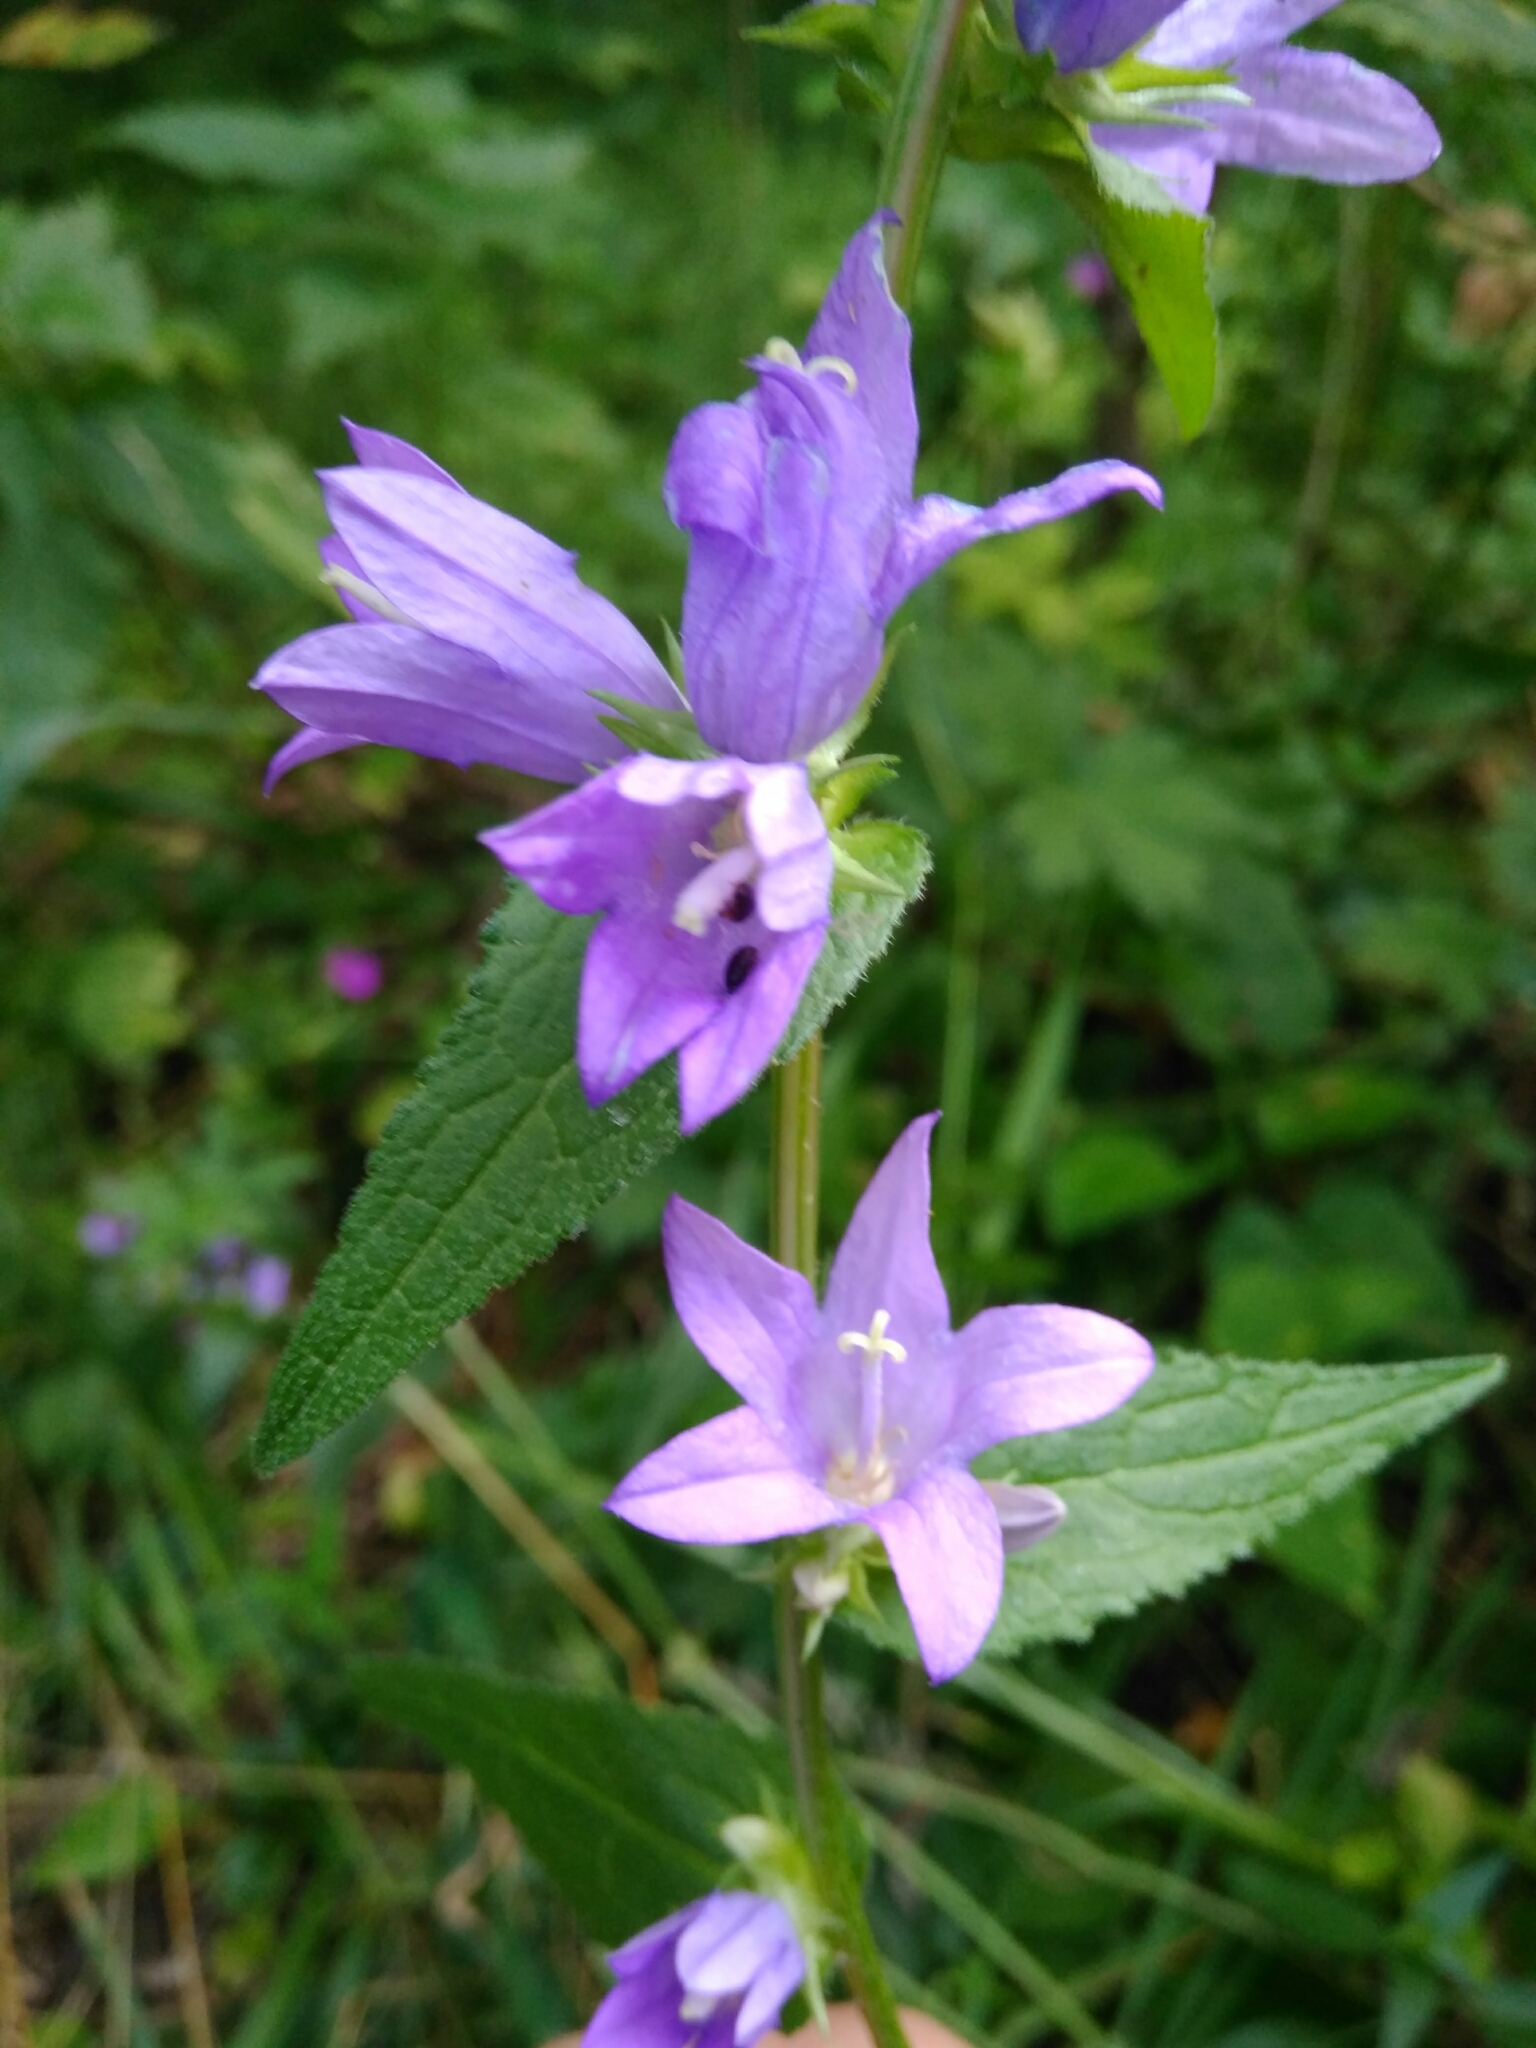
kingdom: Plantae
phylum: Tracheophyta
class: Magnoliopsida
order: Asterales
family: Campanulaceae
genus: Campanula
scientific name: Campanula glomerata
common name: Clustered bellflower
